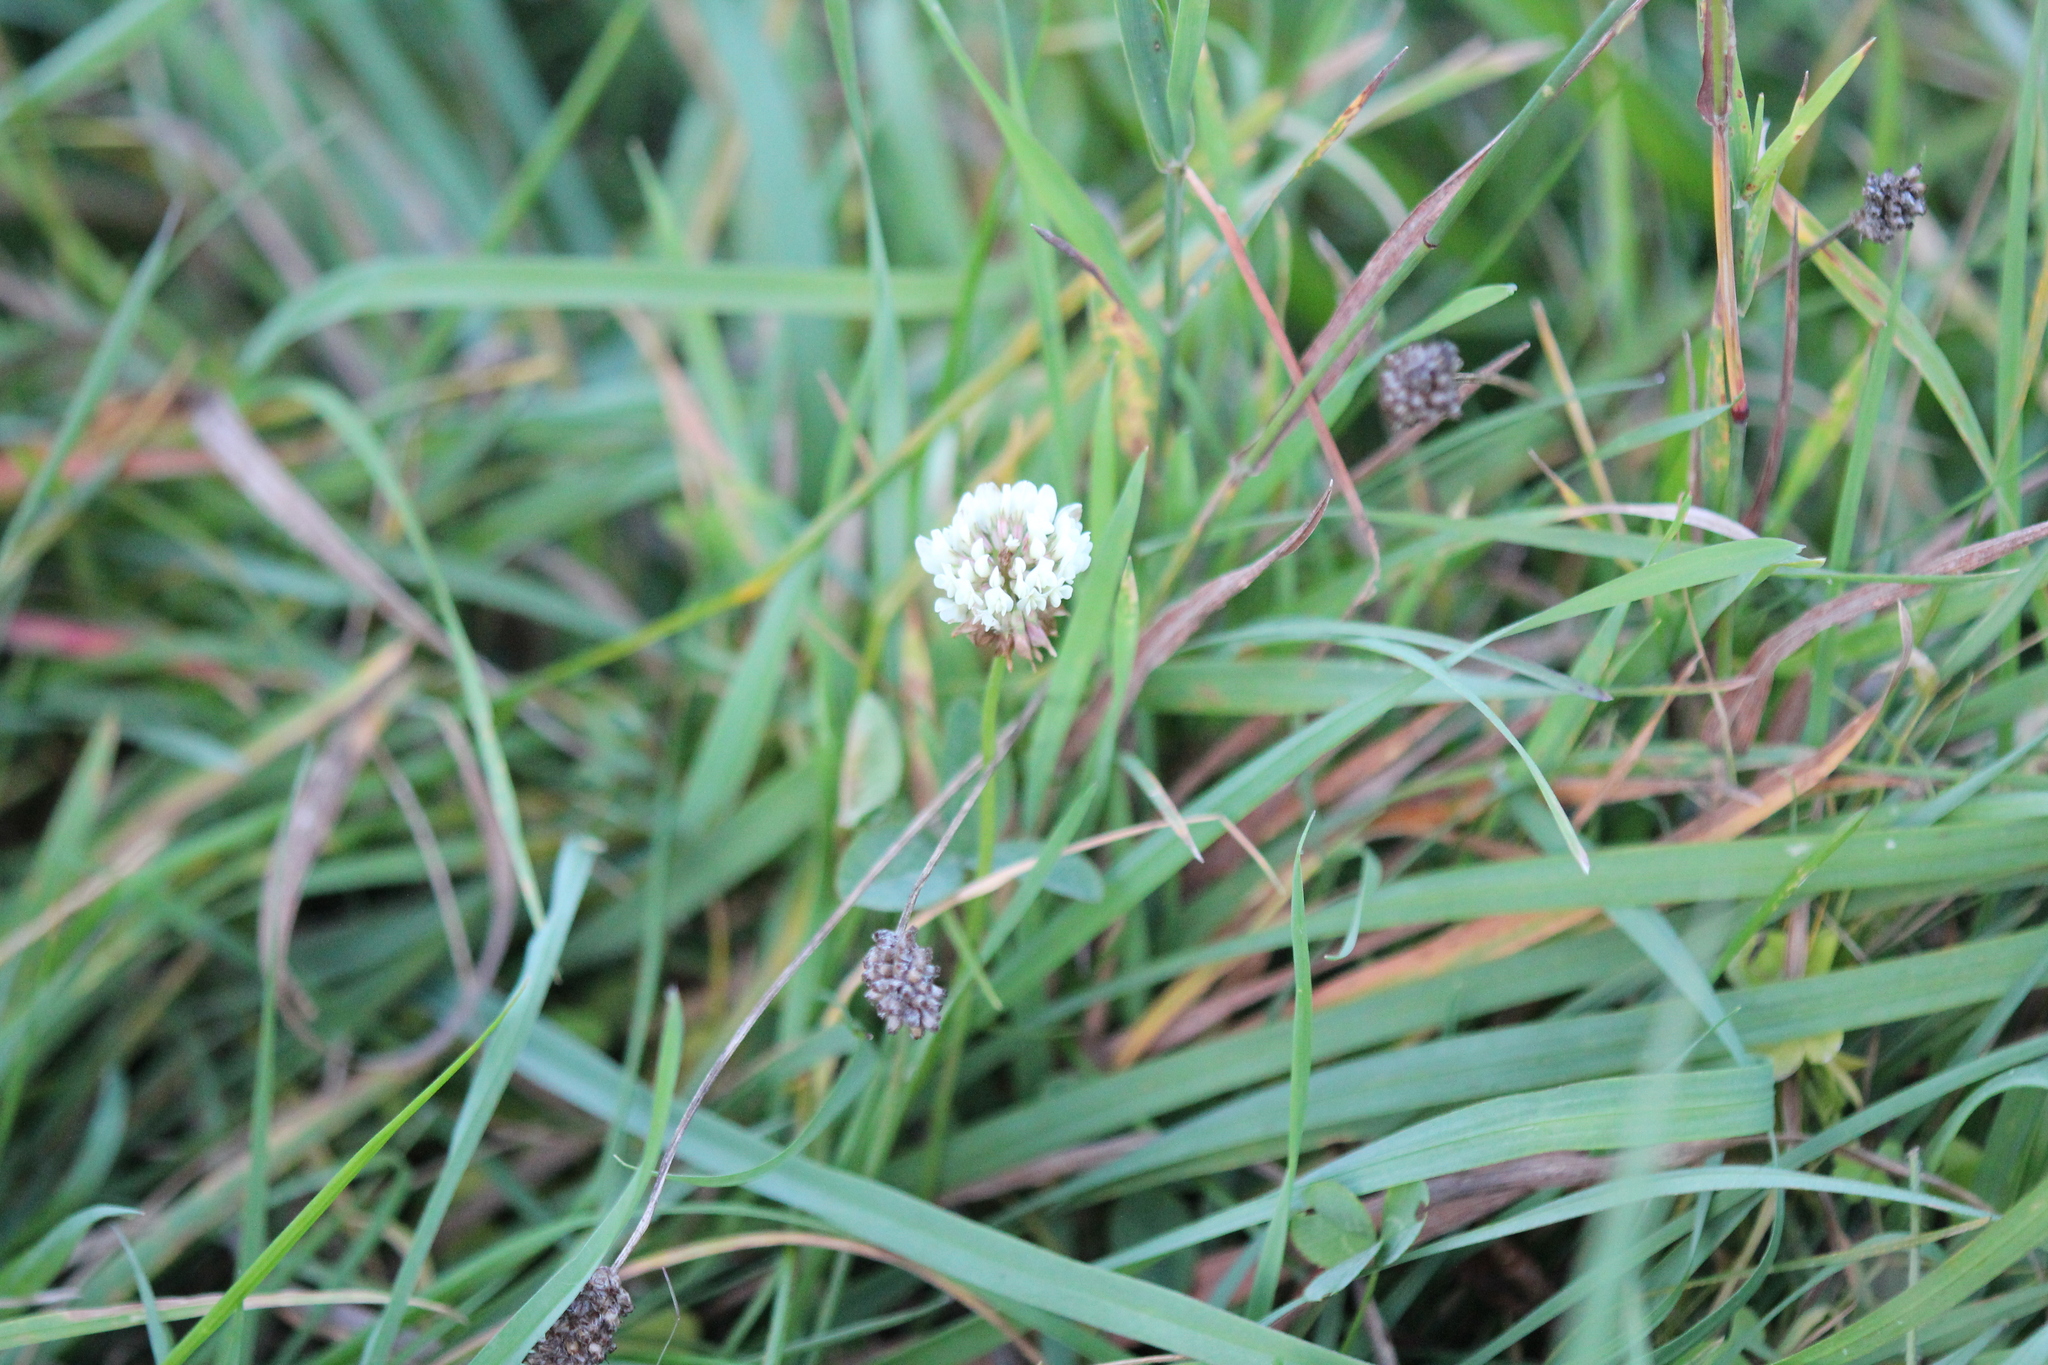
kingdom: Plantae
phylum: Tracheophyta
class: Magnoliopsida
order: Fabales
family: Fabaceae
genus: Trifolium
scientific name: Trifolium repens
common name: White clover
